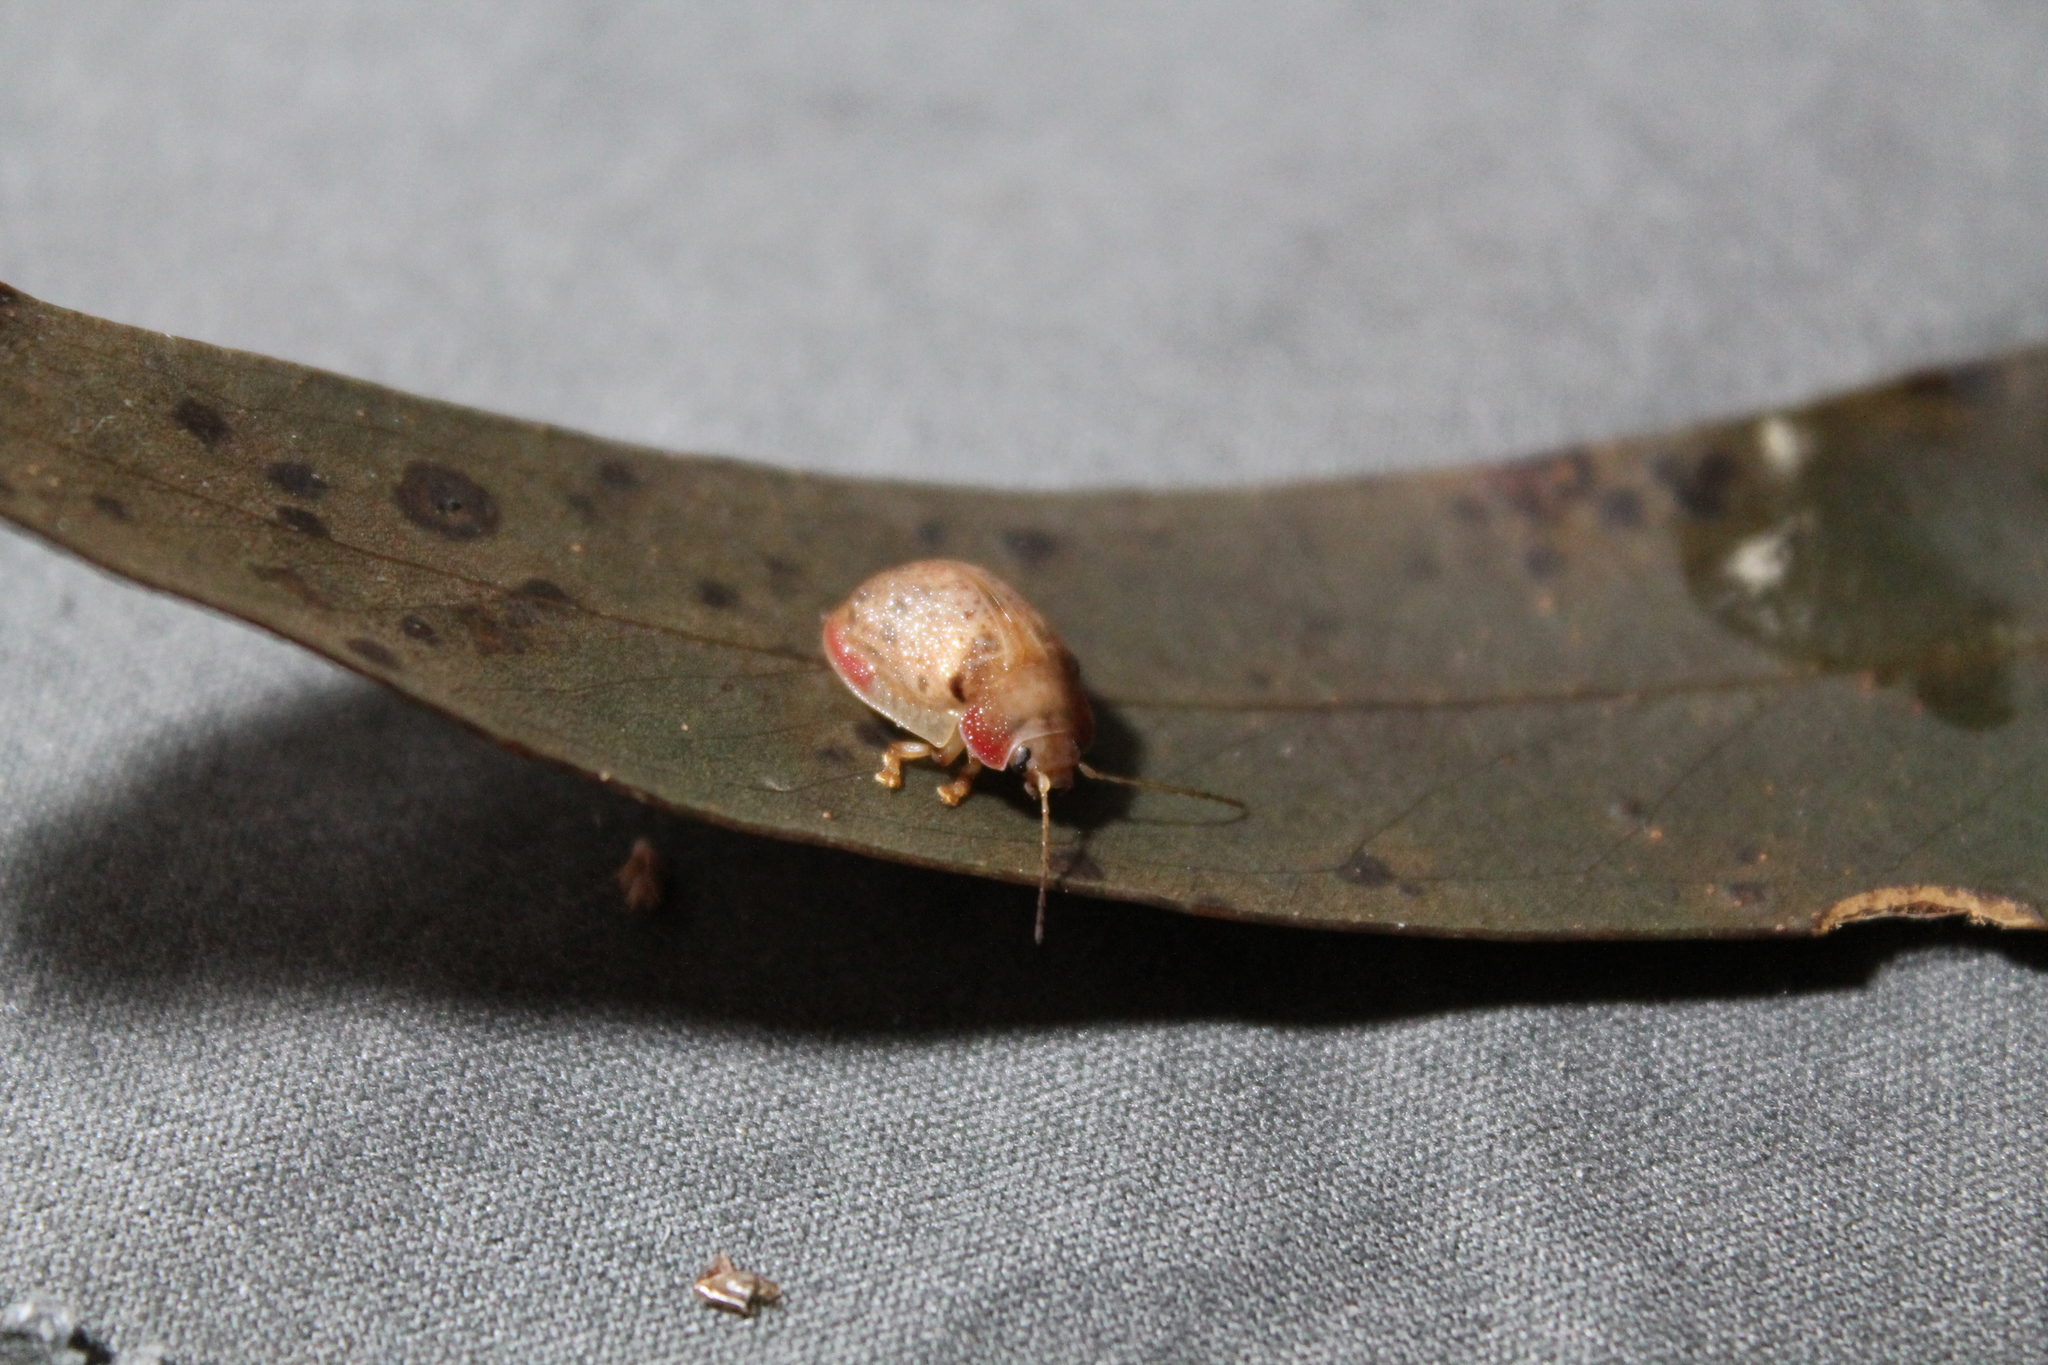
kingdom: Animalia
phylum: Arthropoda
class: Insecta
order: Coleoptera
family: Chrysomelidae
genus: Paropsis
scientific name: Paropsis charybdis
